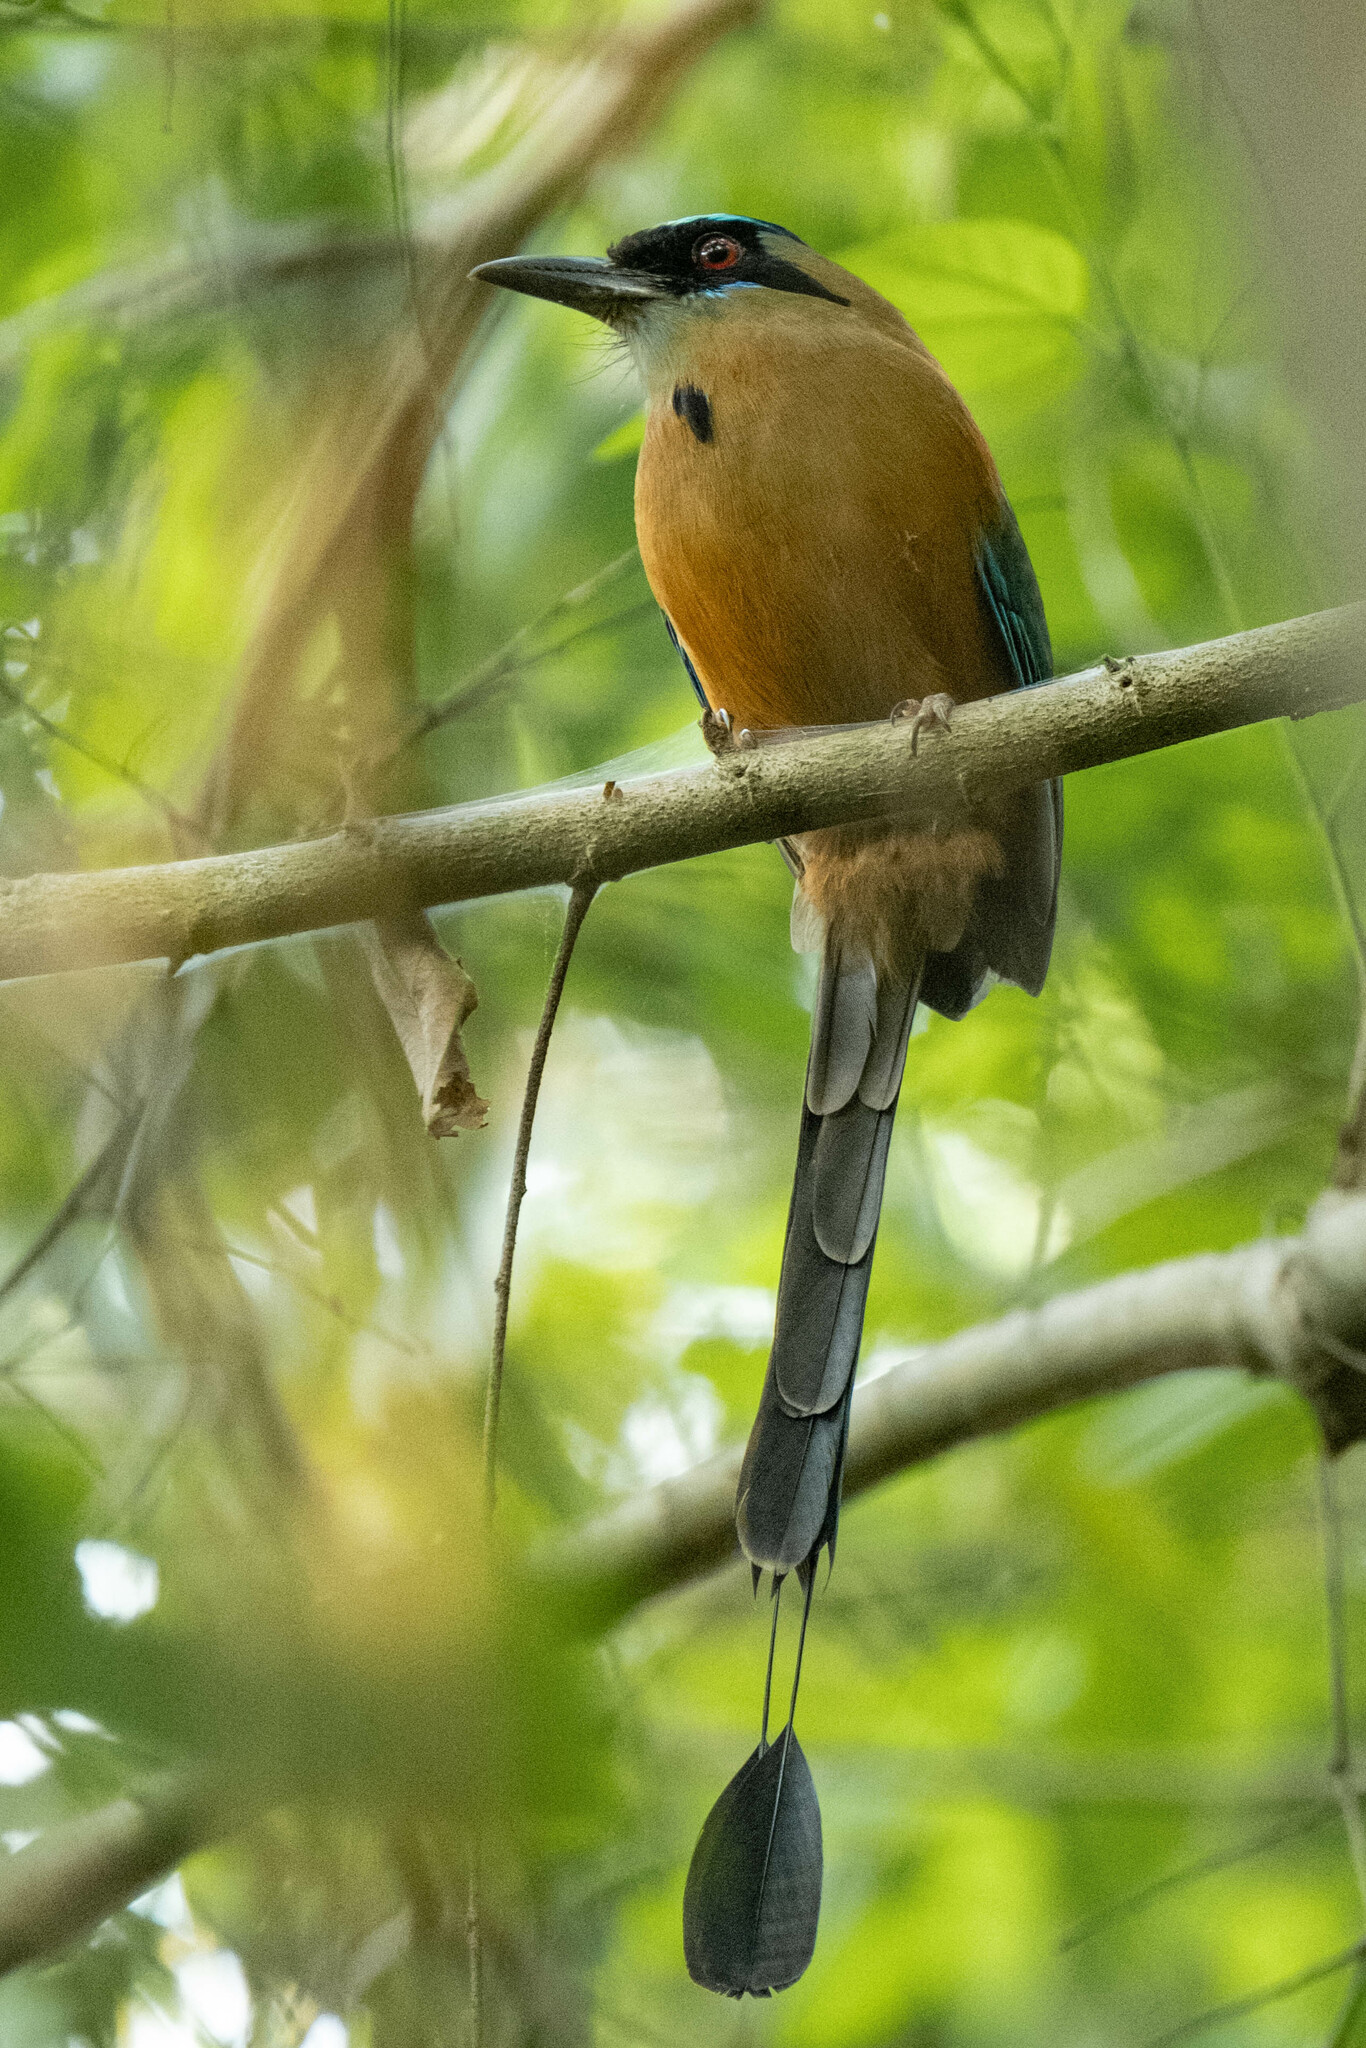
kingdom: Animalia
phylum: Chordata
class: Aves
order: Coraciiformes
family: Momotidae
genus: Momotus
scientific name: Momotus subrufescens
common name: Whooping motmot
